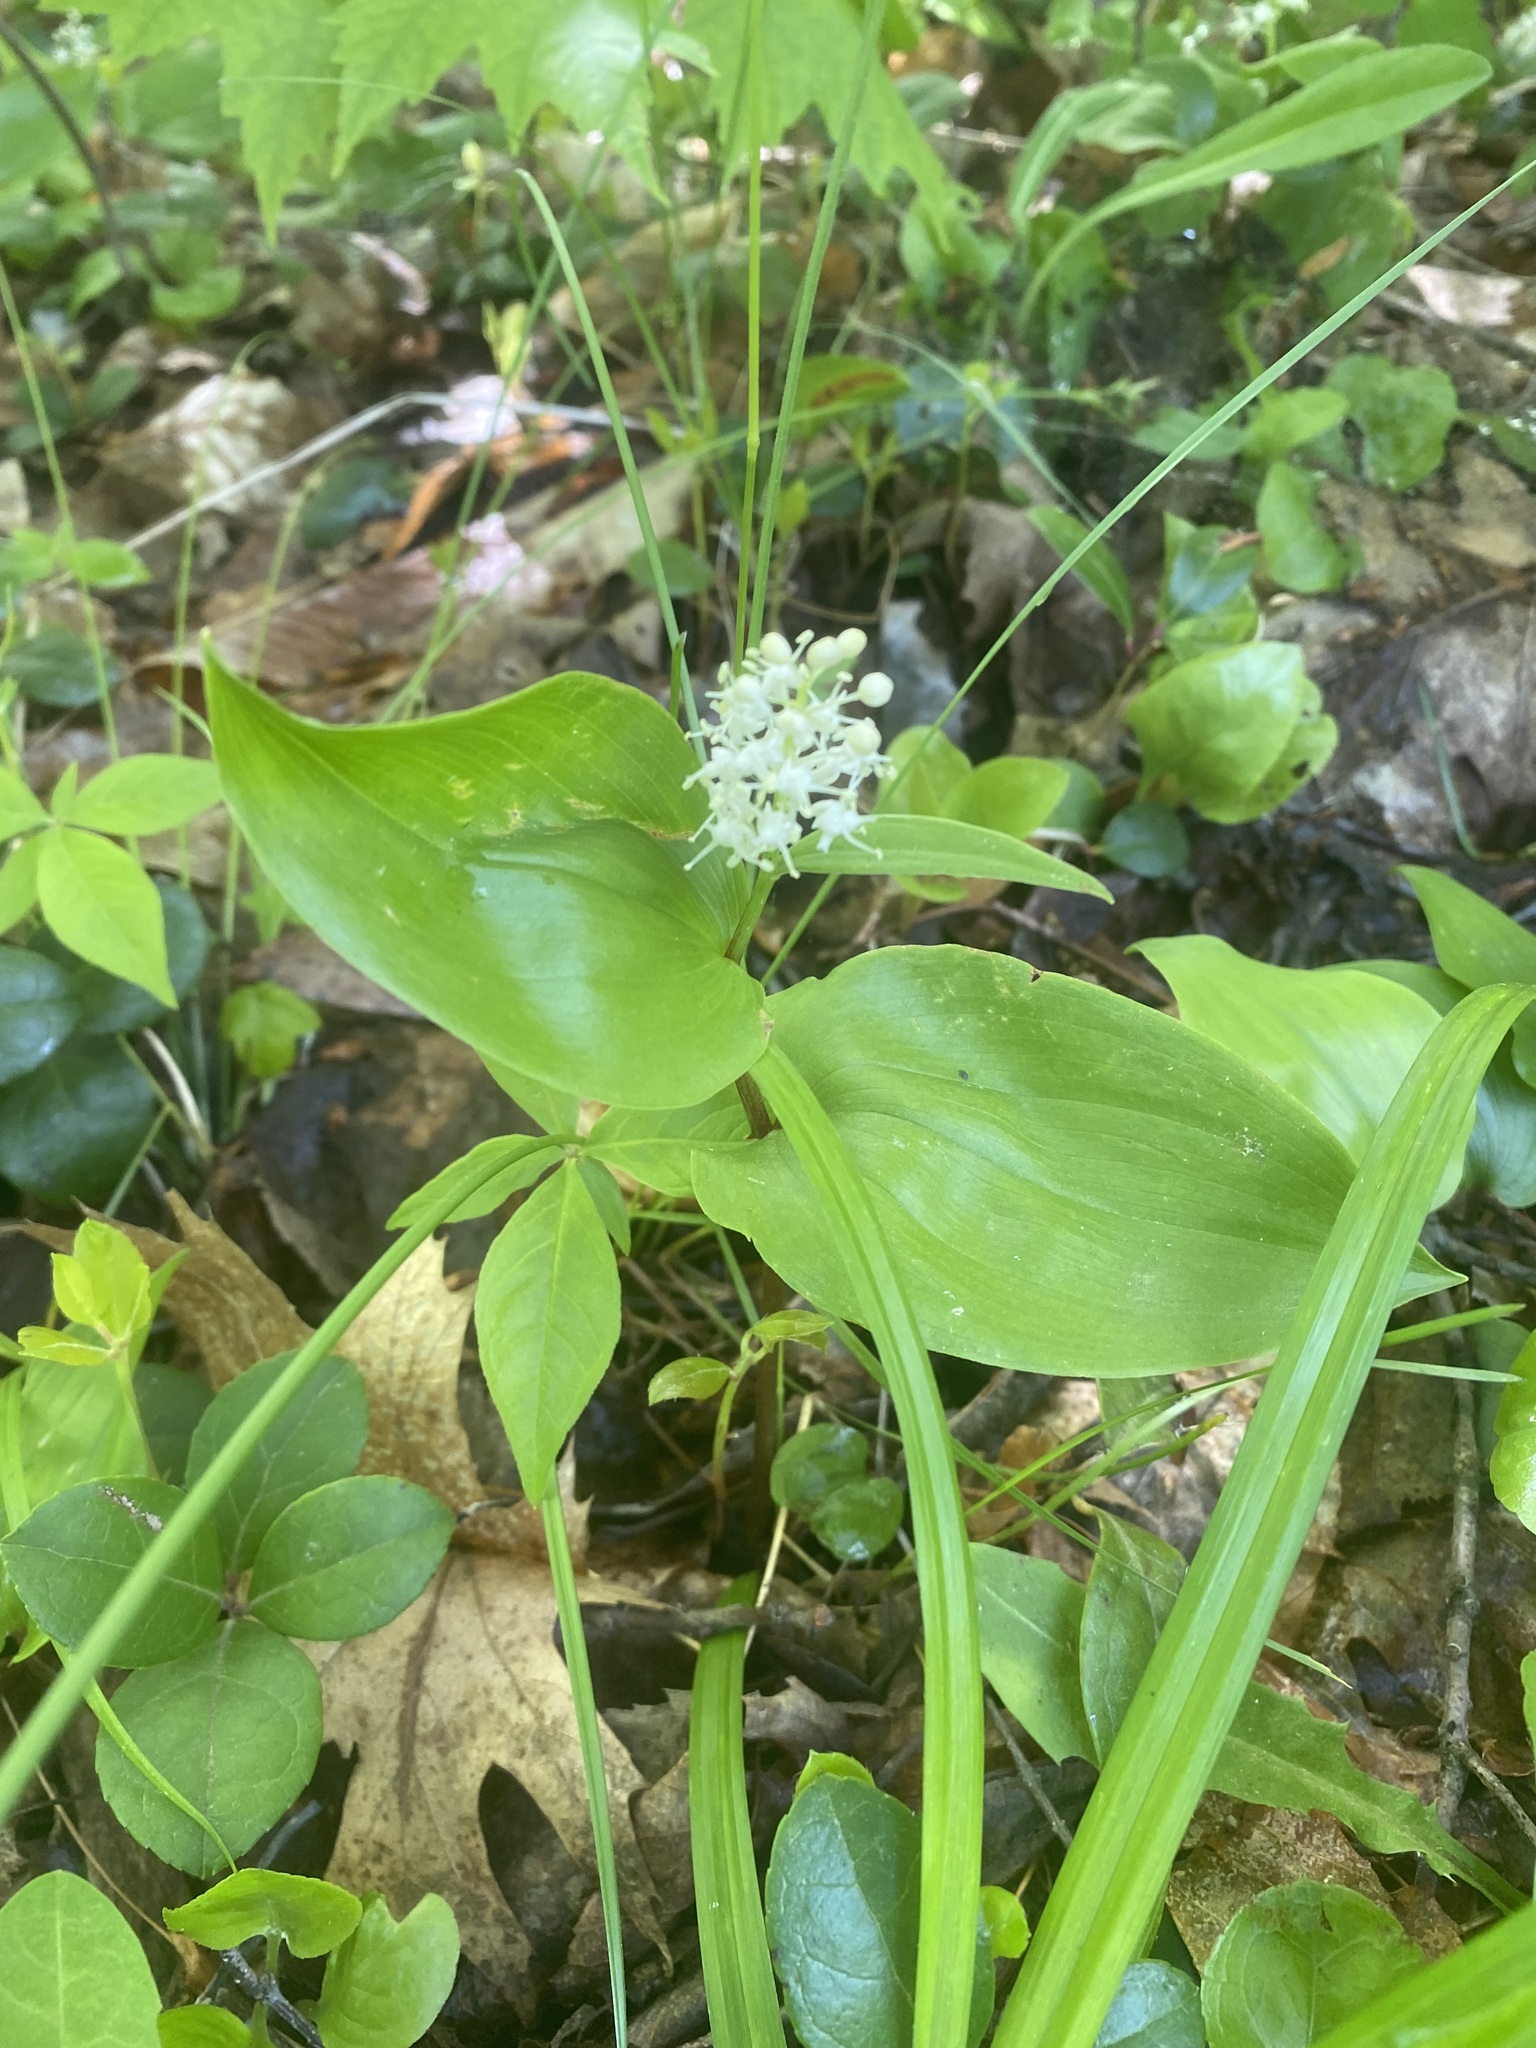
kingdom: Plantae
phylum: Tracheophyta
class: Liliopsida
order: Asparagales
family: Asparagaceae
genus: Maianthemum
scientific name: Maianthemum canadense
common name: False lily-of-the-valley
